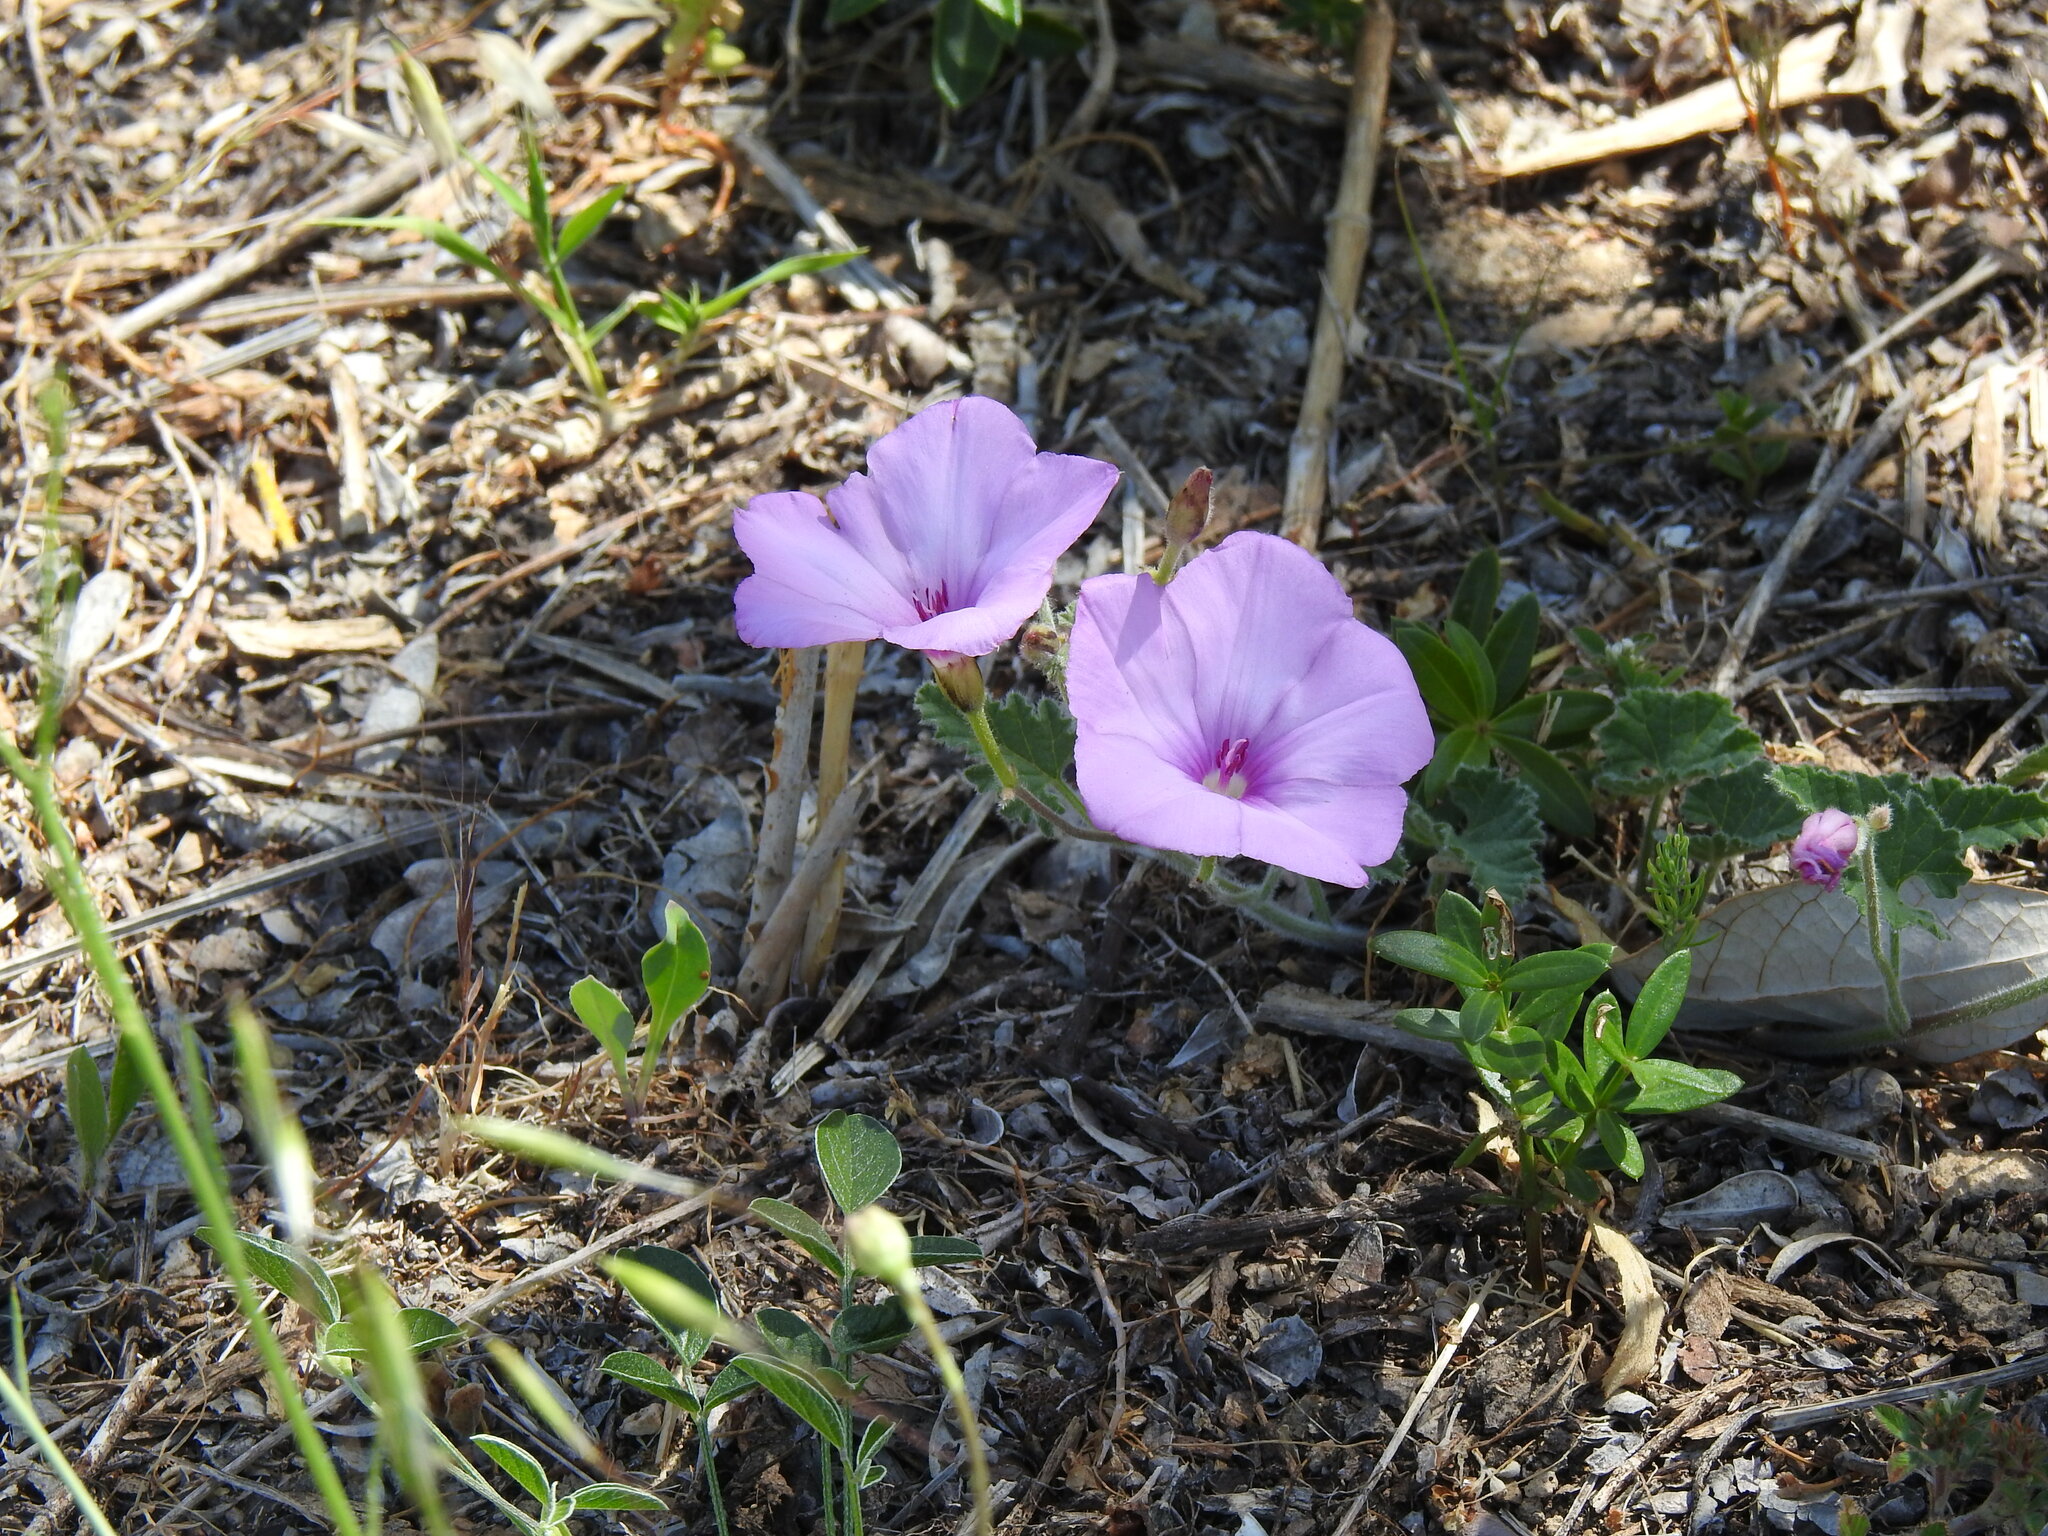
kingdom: Plantae
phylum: Tracheophyta
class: Magnoliopsida
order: Solanales
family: Convolvulaceae
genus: Convolvulus
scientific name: Convolvulus althaeoides
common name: Mallow bindweed
